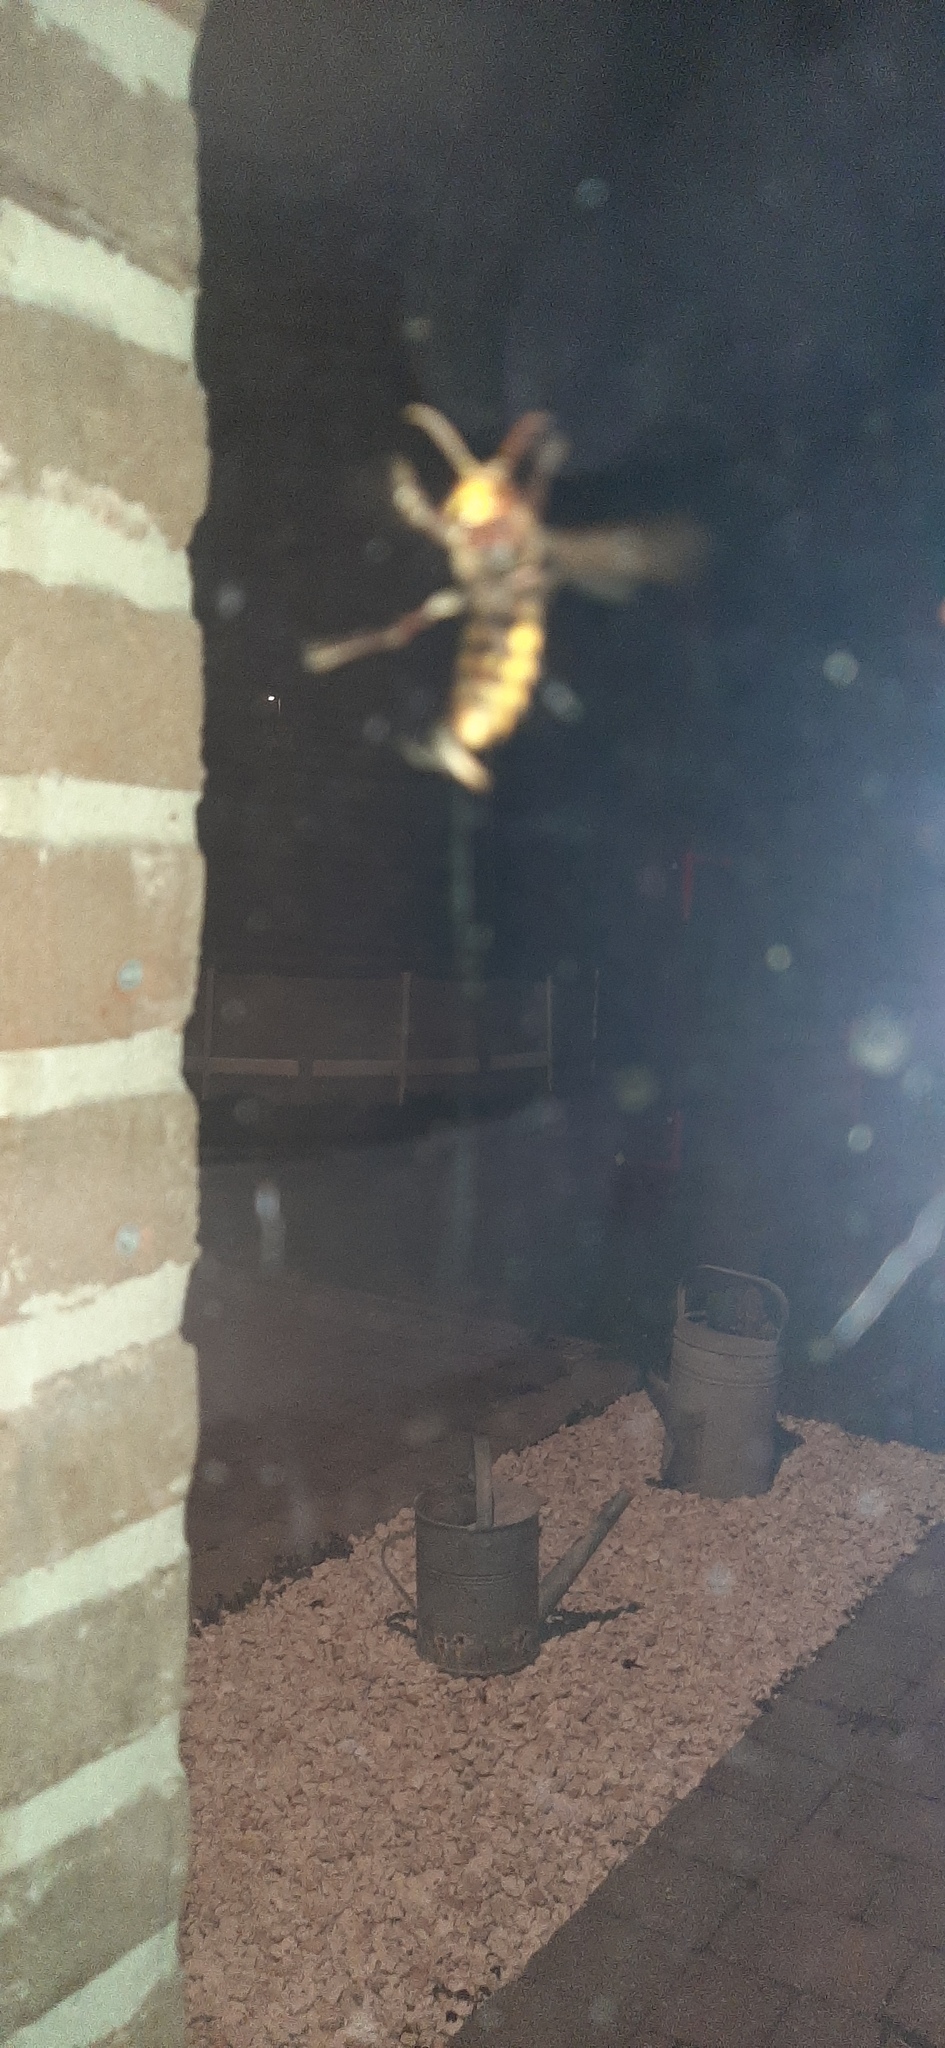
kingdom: Animalia
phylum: Arthropoda
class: Insecta
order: Hymenoptera
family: Vespidae
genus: Vespa
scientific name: Vespa crabro
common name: Hornet
